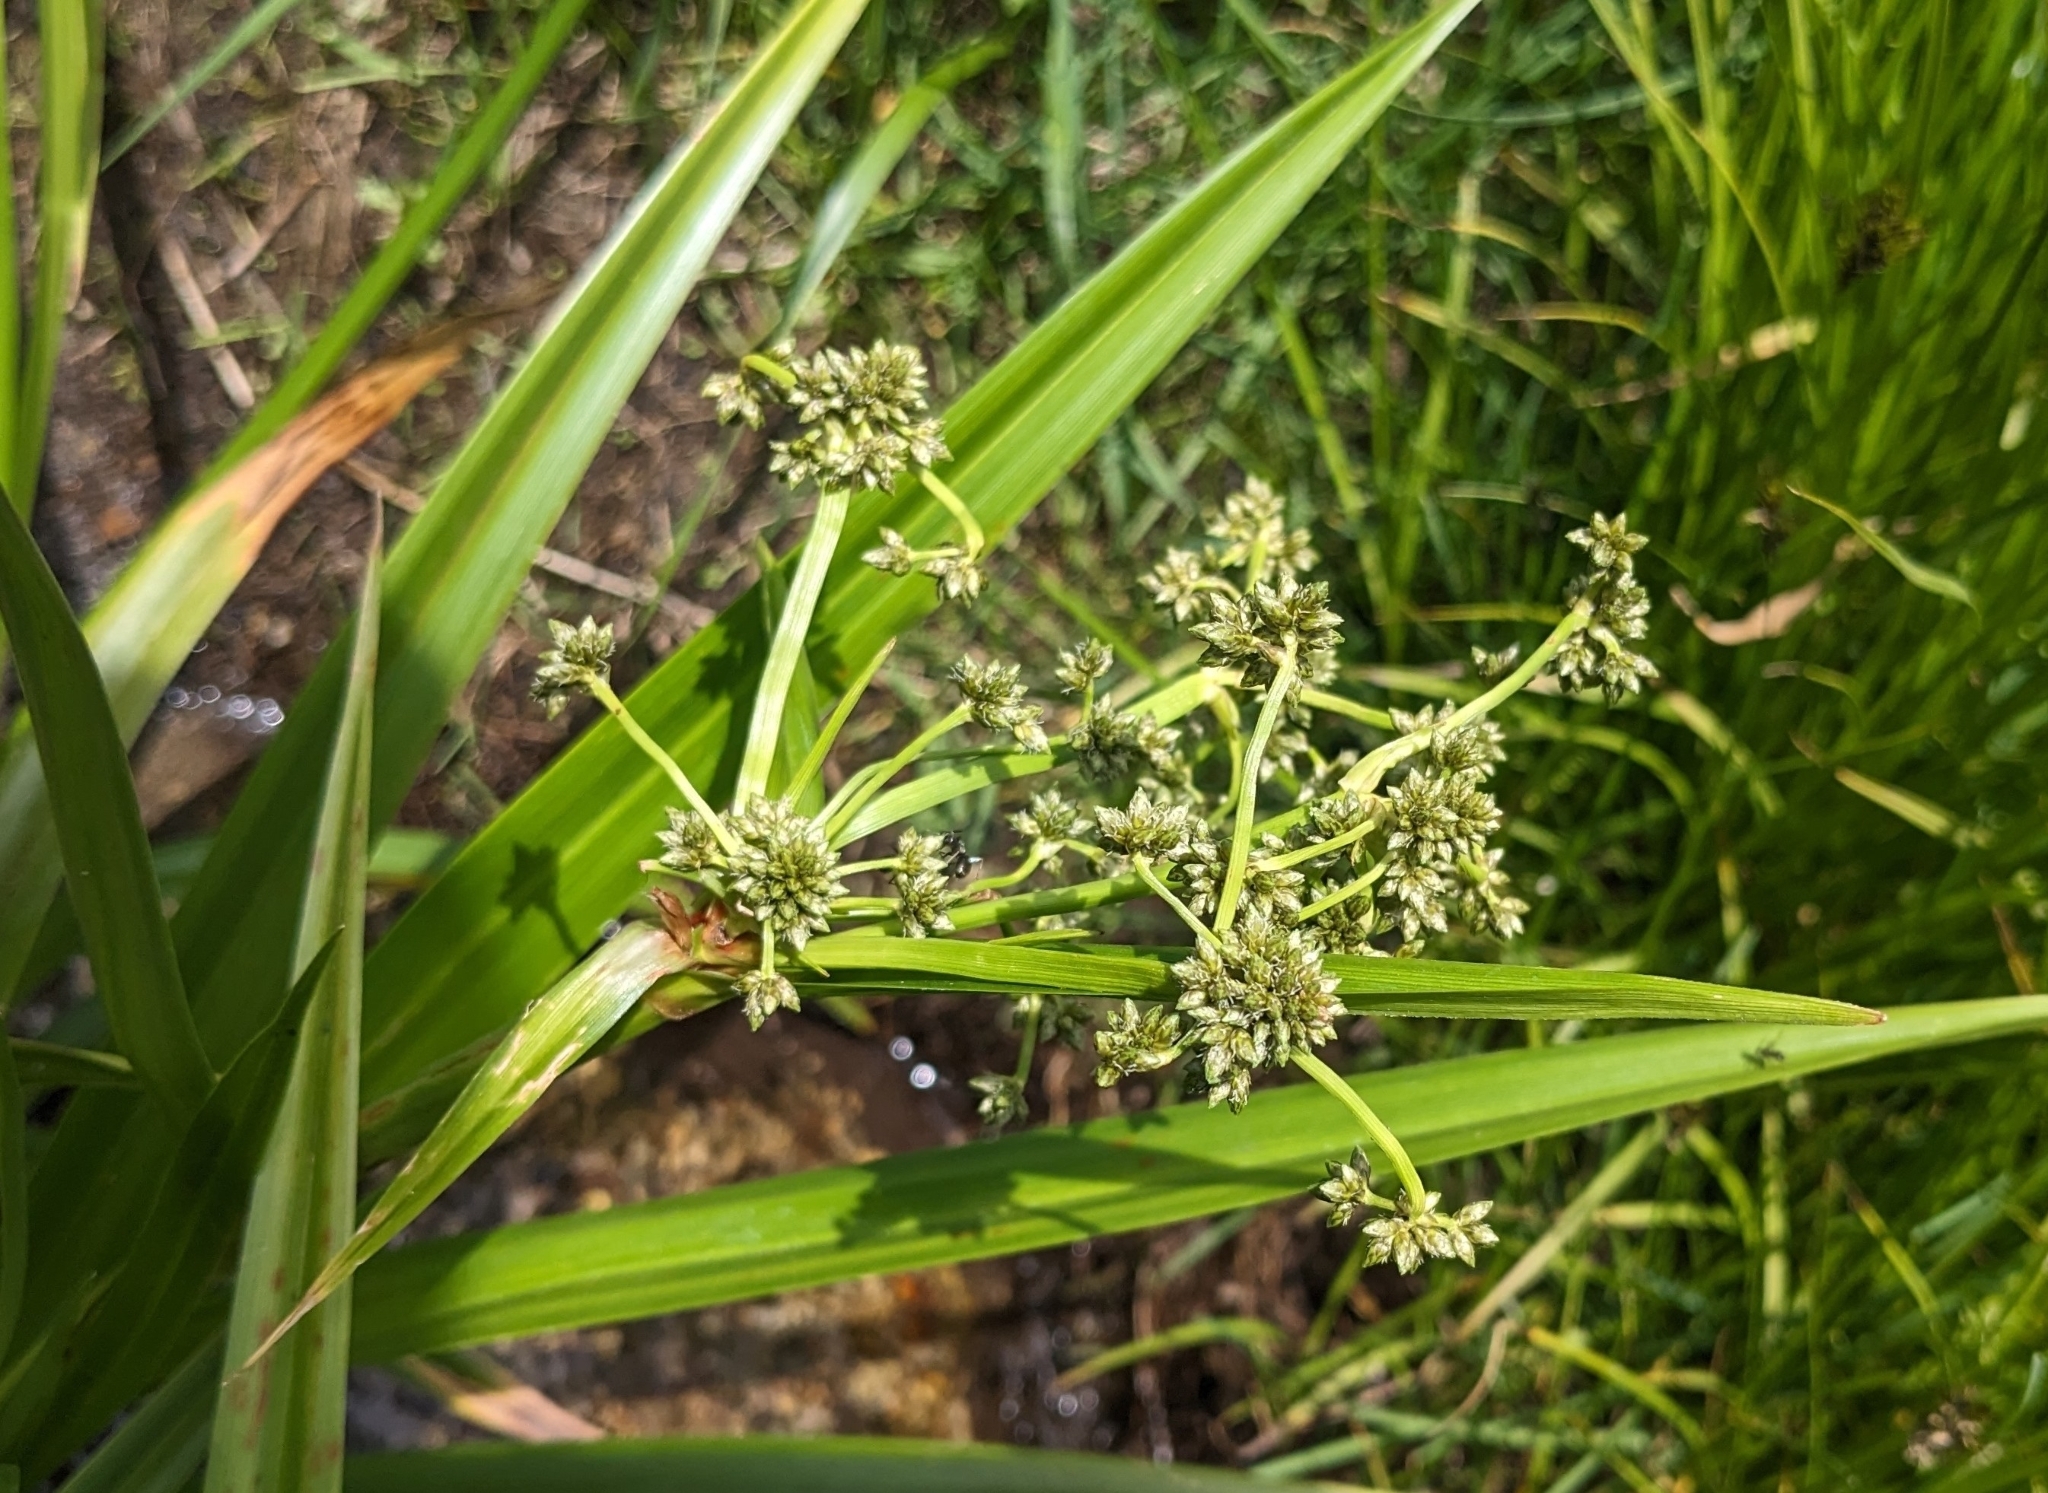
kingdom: Plantae
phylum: Tracheophyta
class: Liliopsida
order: Poales
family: Cyperaceae
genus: Scirpus
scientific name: Scirpus microcarpus
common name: Panicled bulrush
